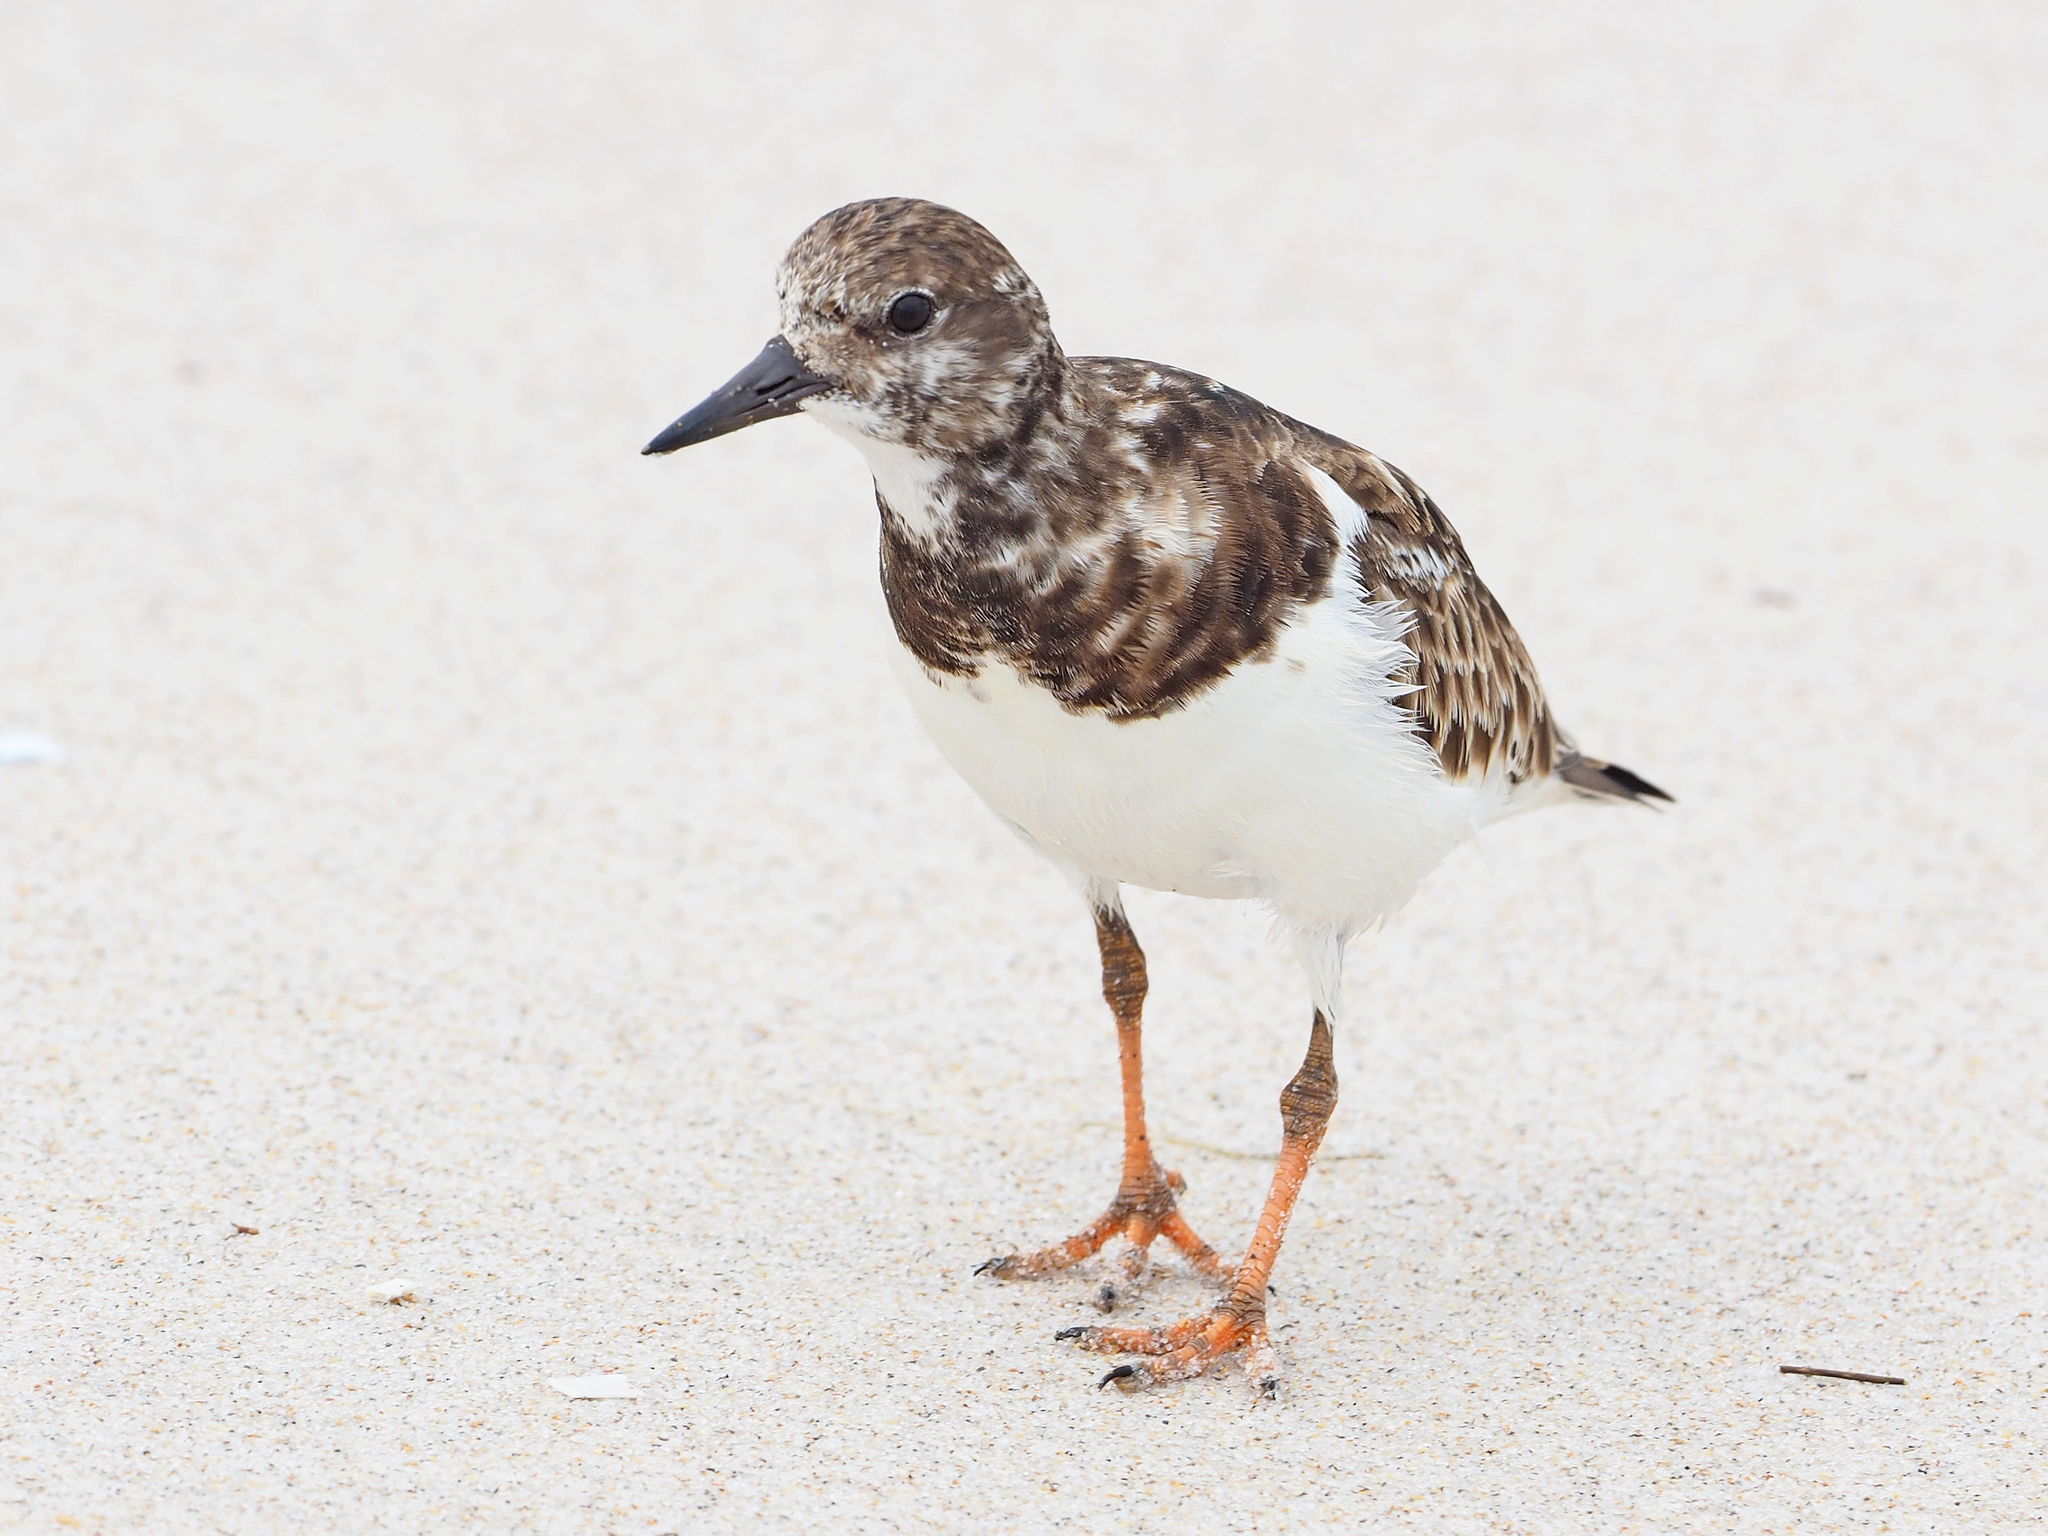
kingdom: Animalia
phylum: Chordata
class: Aves
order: Charadriiformes
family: Scolopacidae
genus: Arenaria
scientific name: Arenaria interpres
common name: Ruddy turnstone
